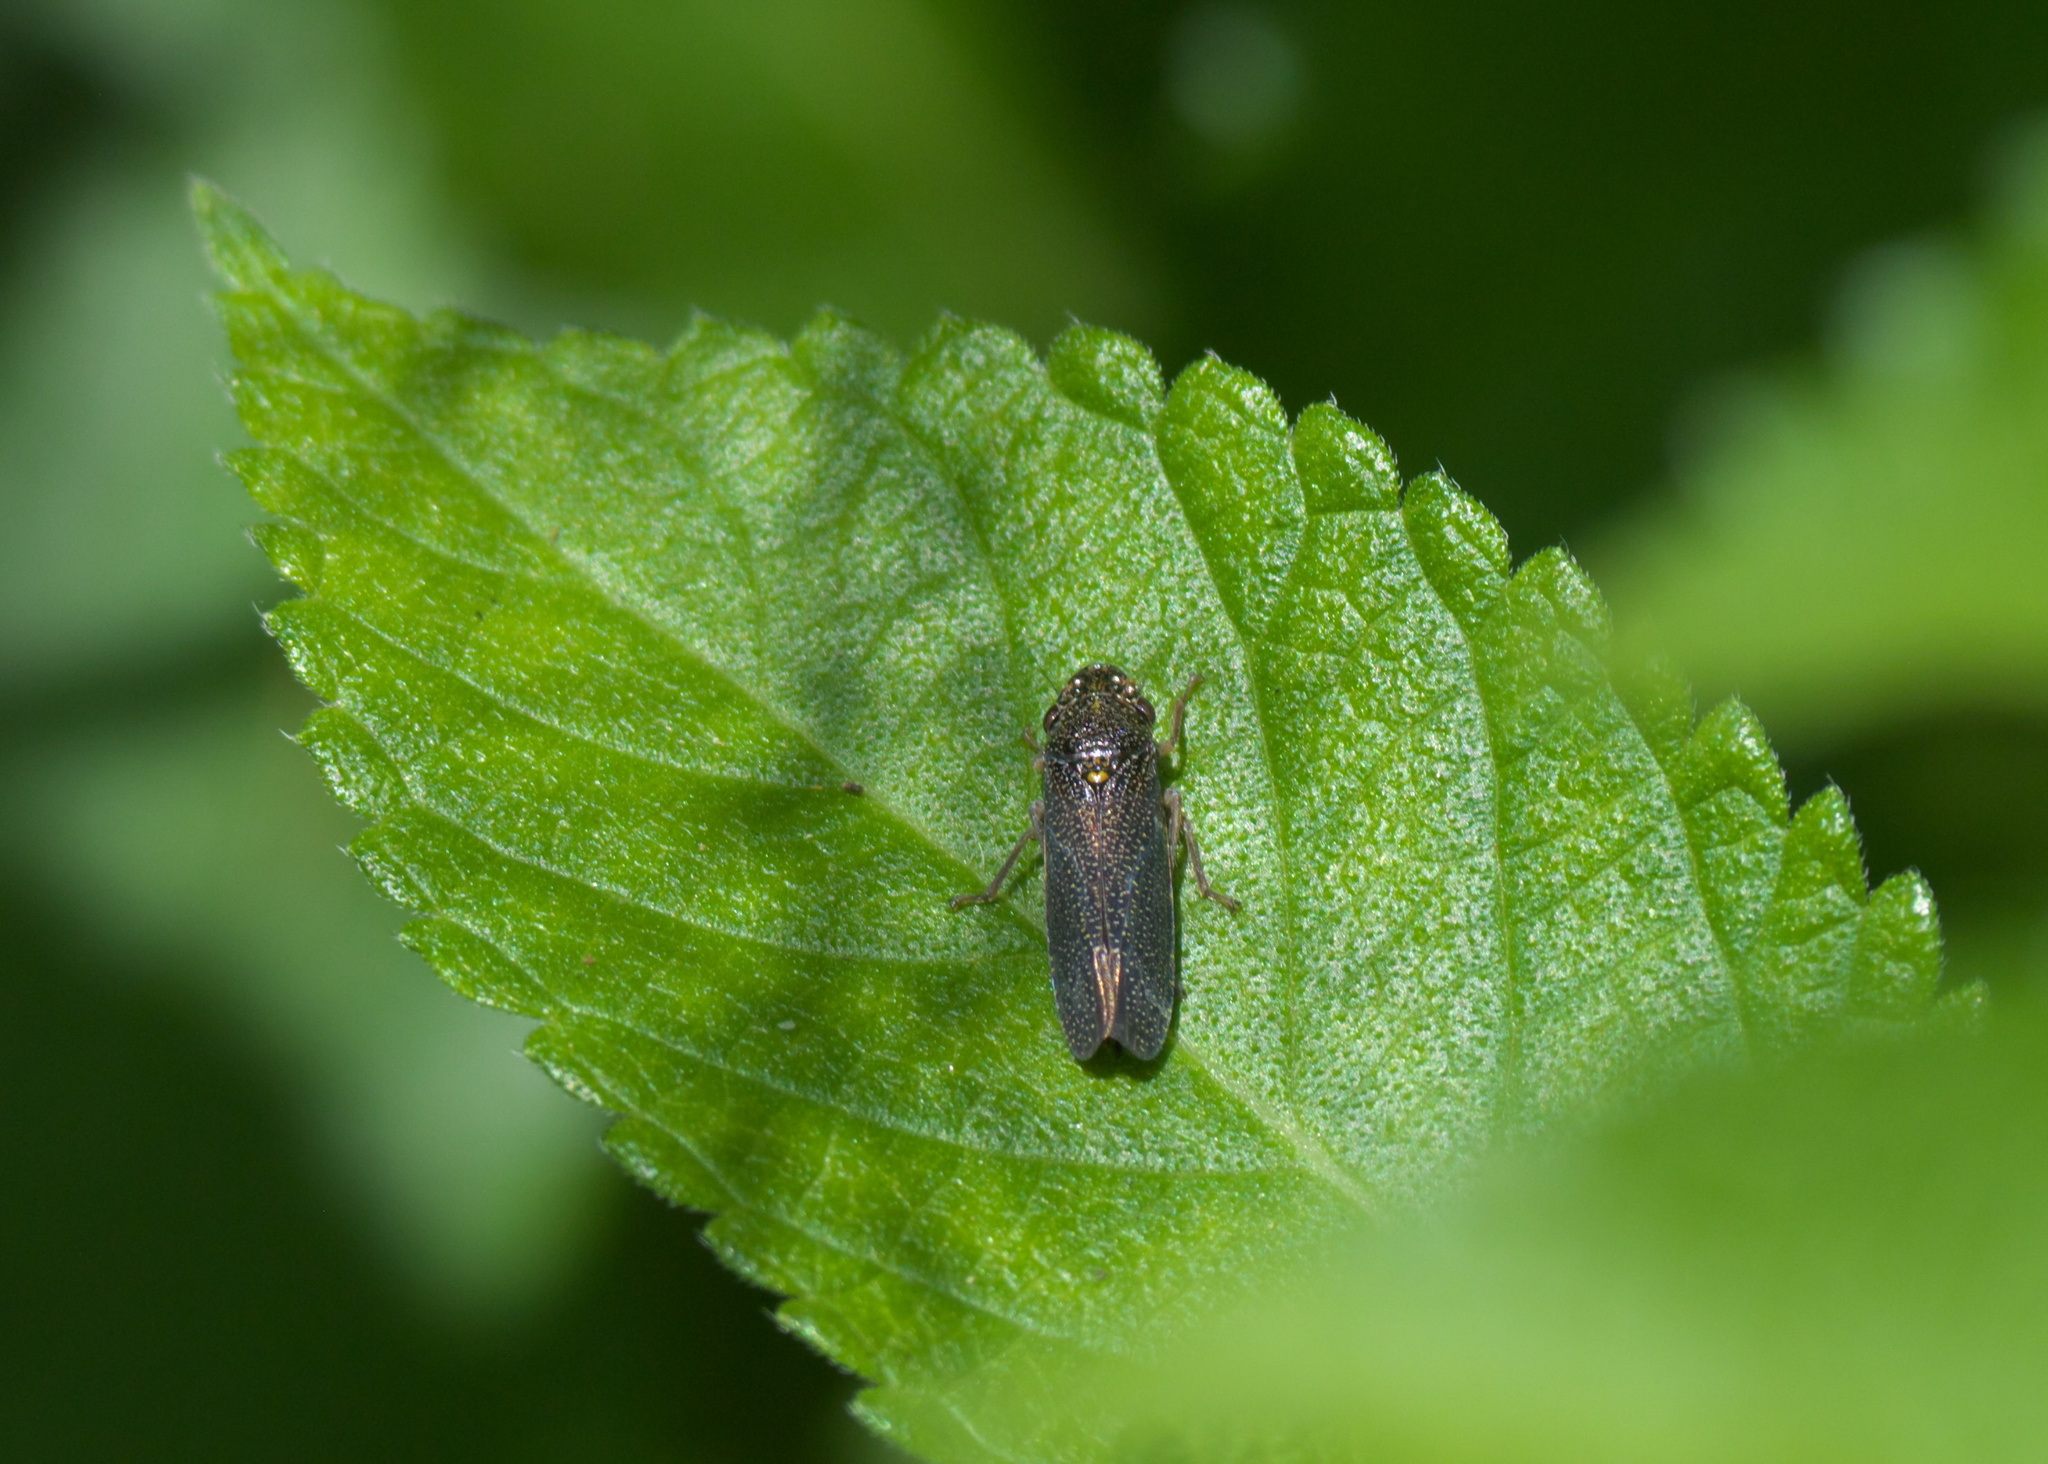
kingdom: Animalia
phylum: Arthropoda
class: Insecta
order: Hemiptera
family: Cicadellidae
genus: Paraulacizes
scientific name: Paraulacizes irrorata
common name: Speckled sharpshooter
